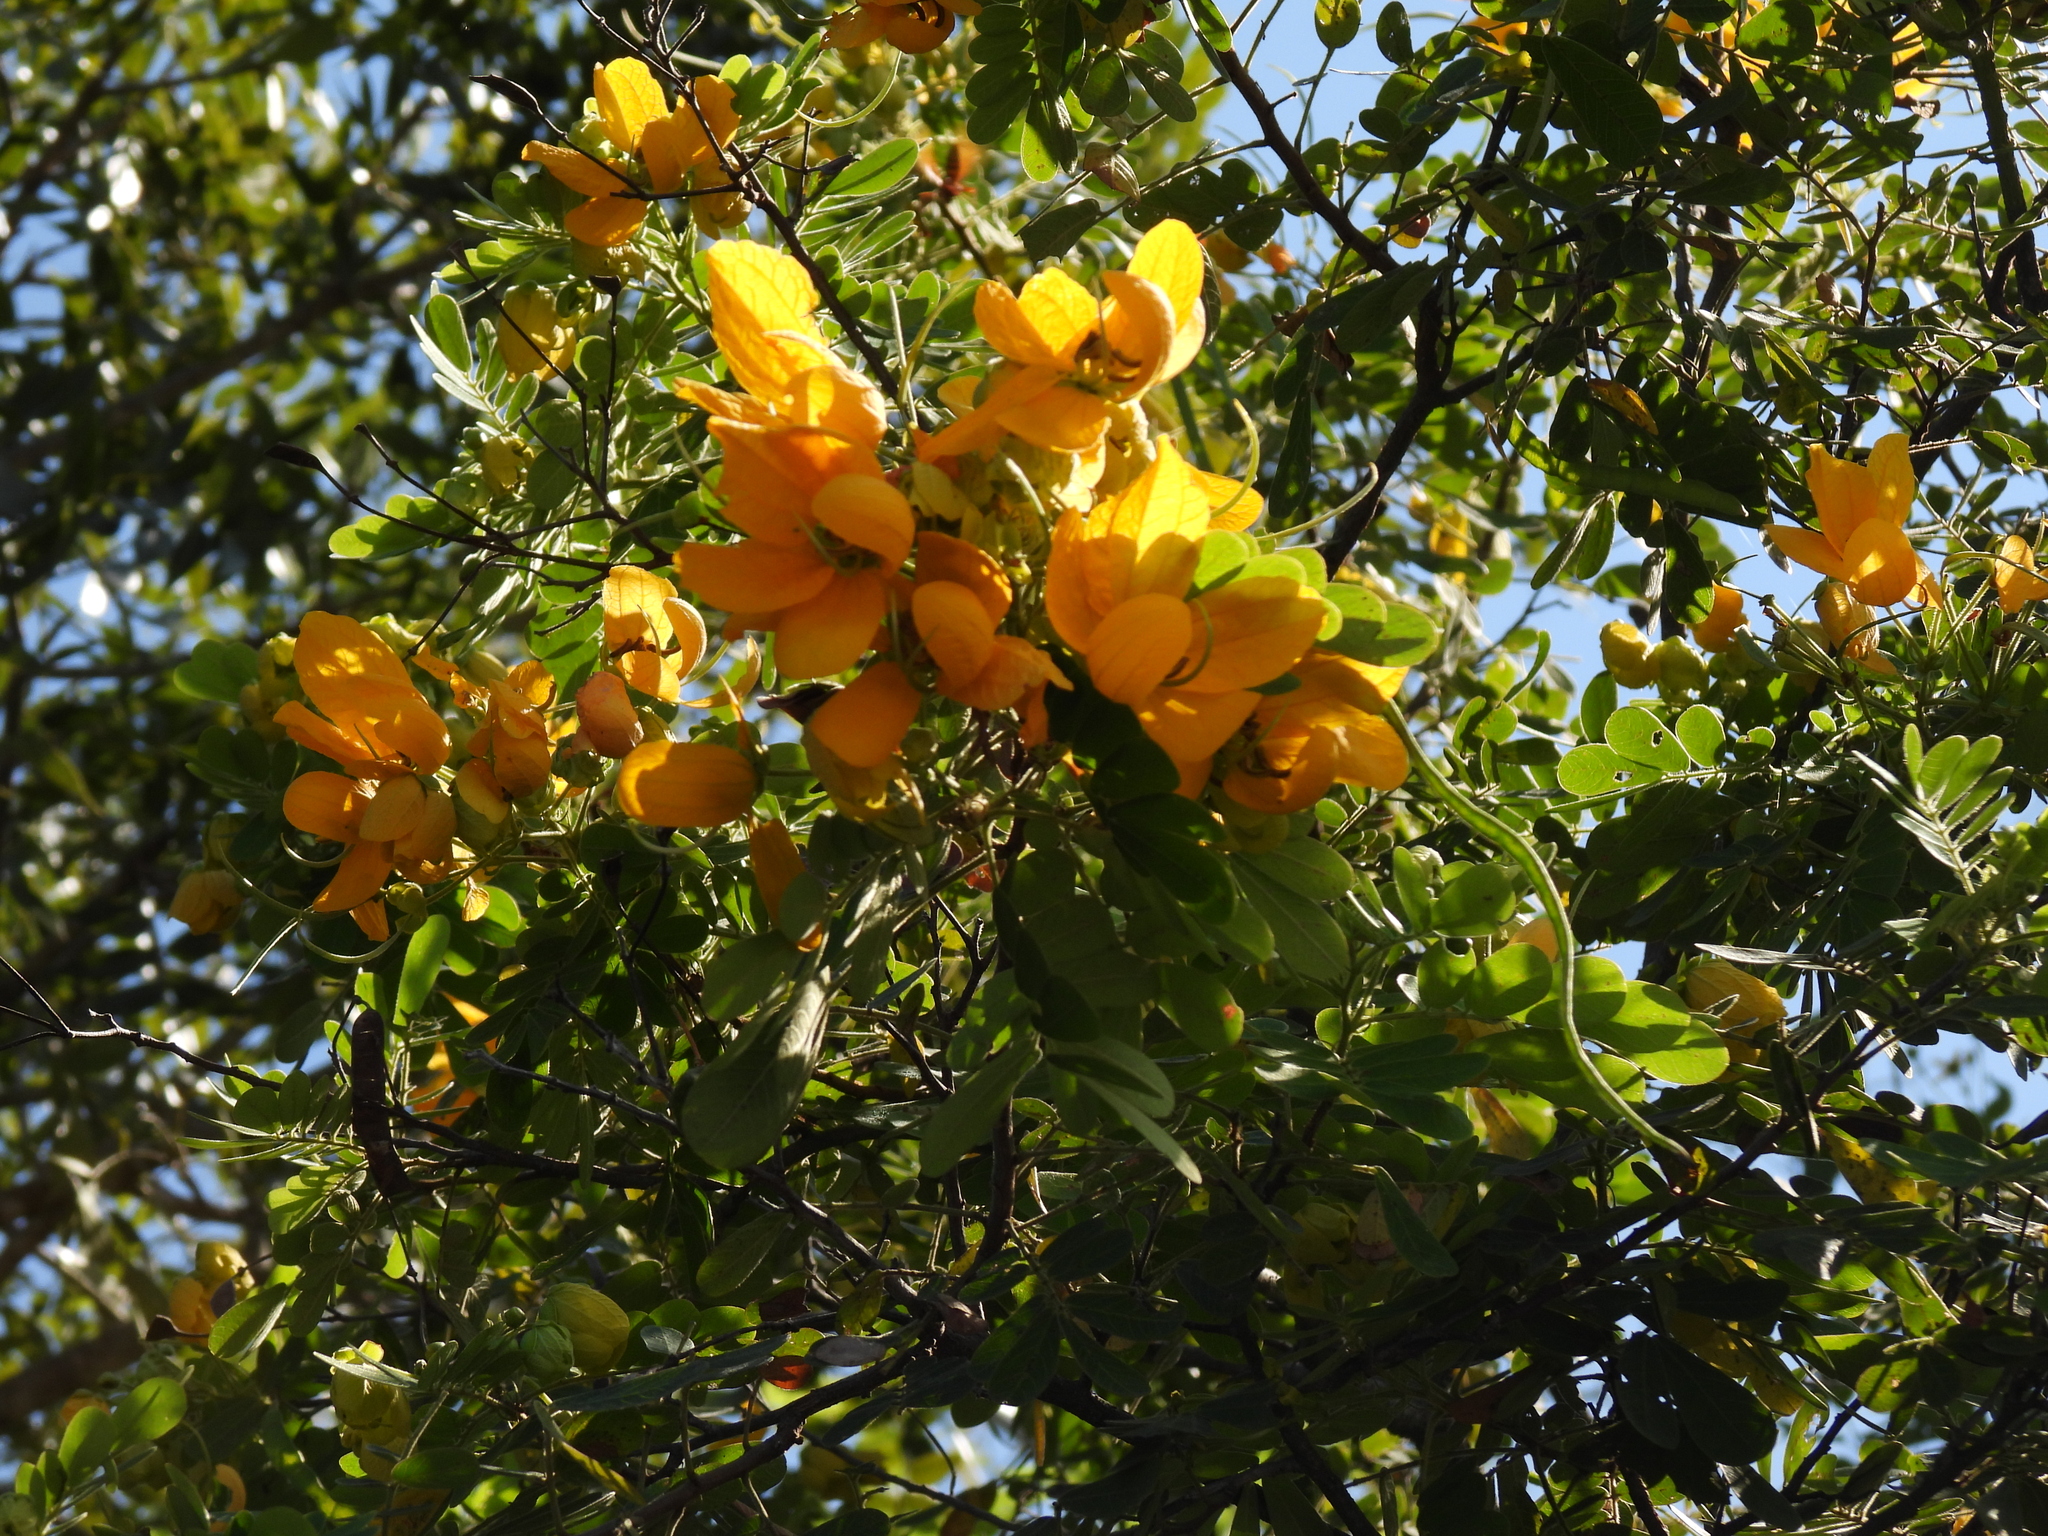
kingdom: Plantae
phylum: Tracheophyta
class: Magnoliopsida
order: Fabales
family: Fabaceae
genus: Senna
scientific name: Senna pallida
